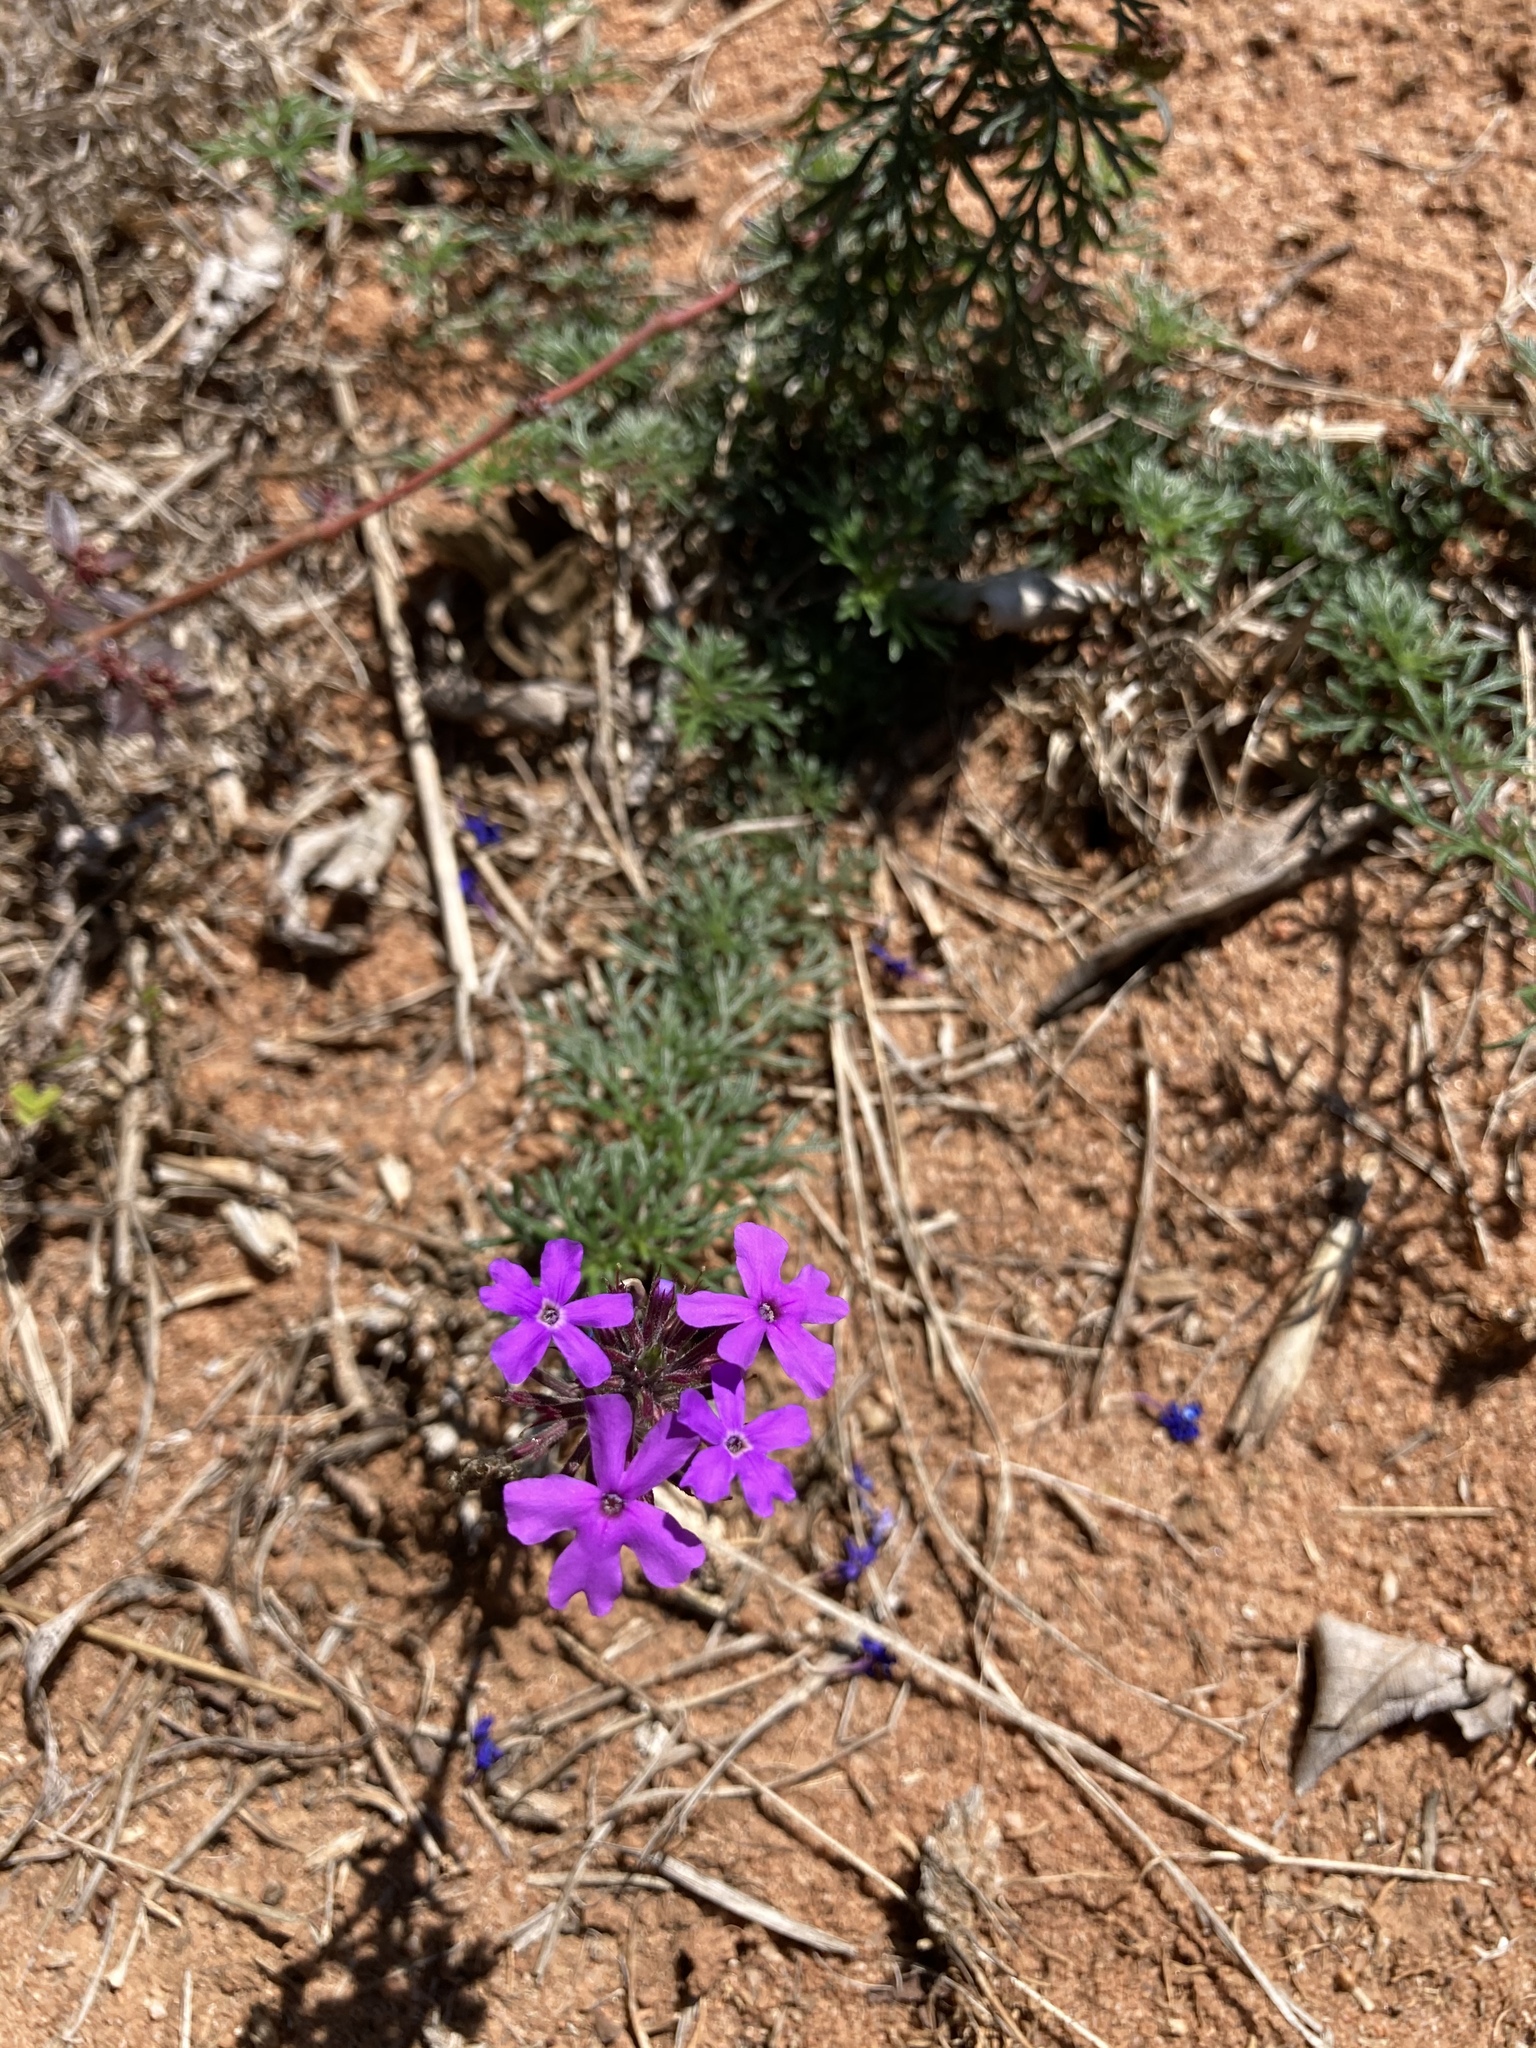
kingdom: Plantae
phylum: Tracheophyta
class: Magnoliopsida
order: Lamiales
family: Verbenaceae
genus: Verbena
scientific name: Verbena aristigera
